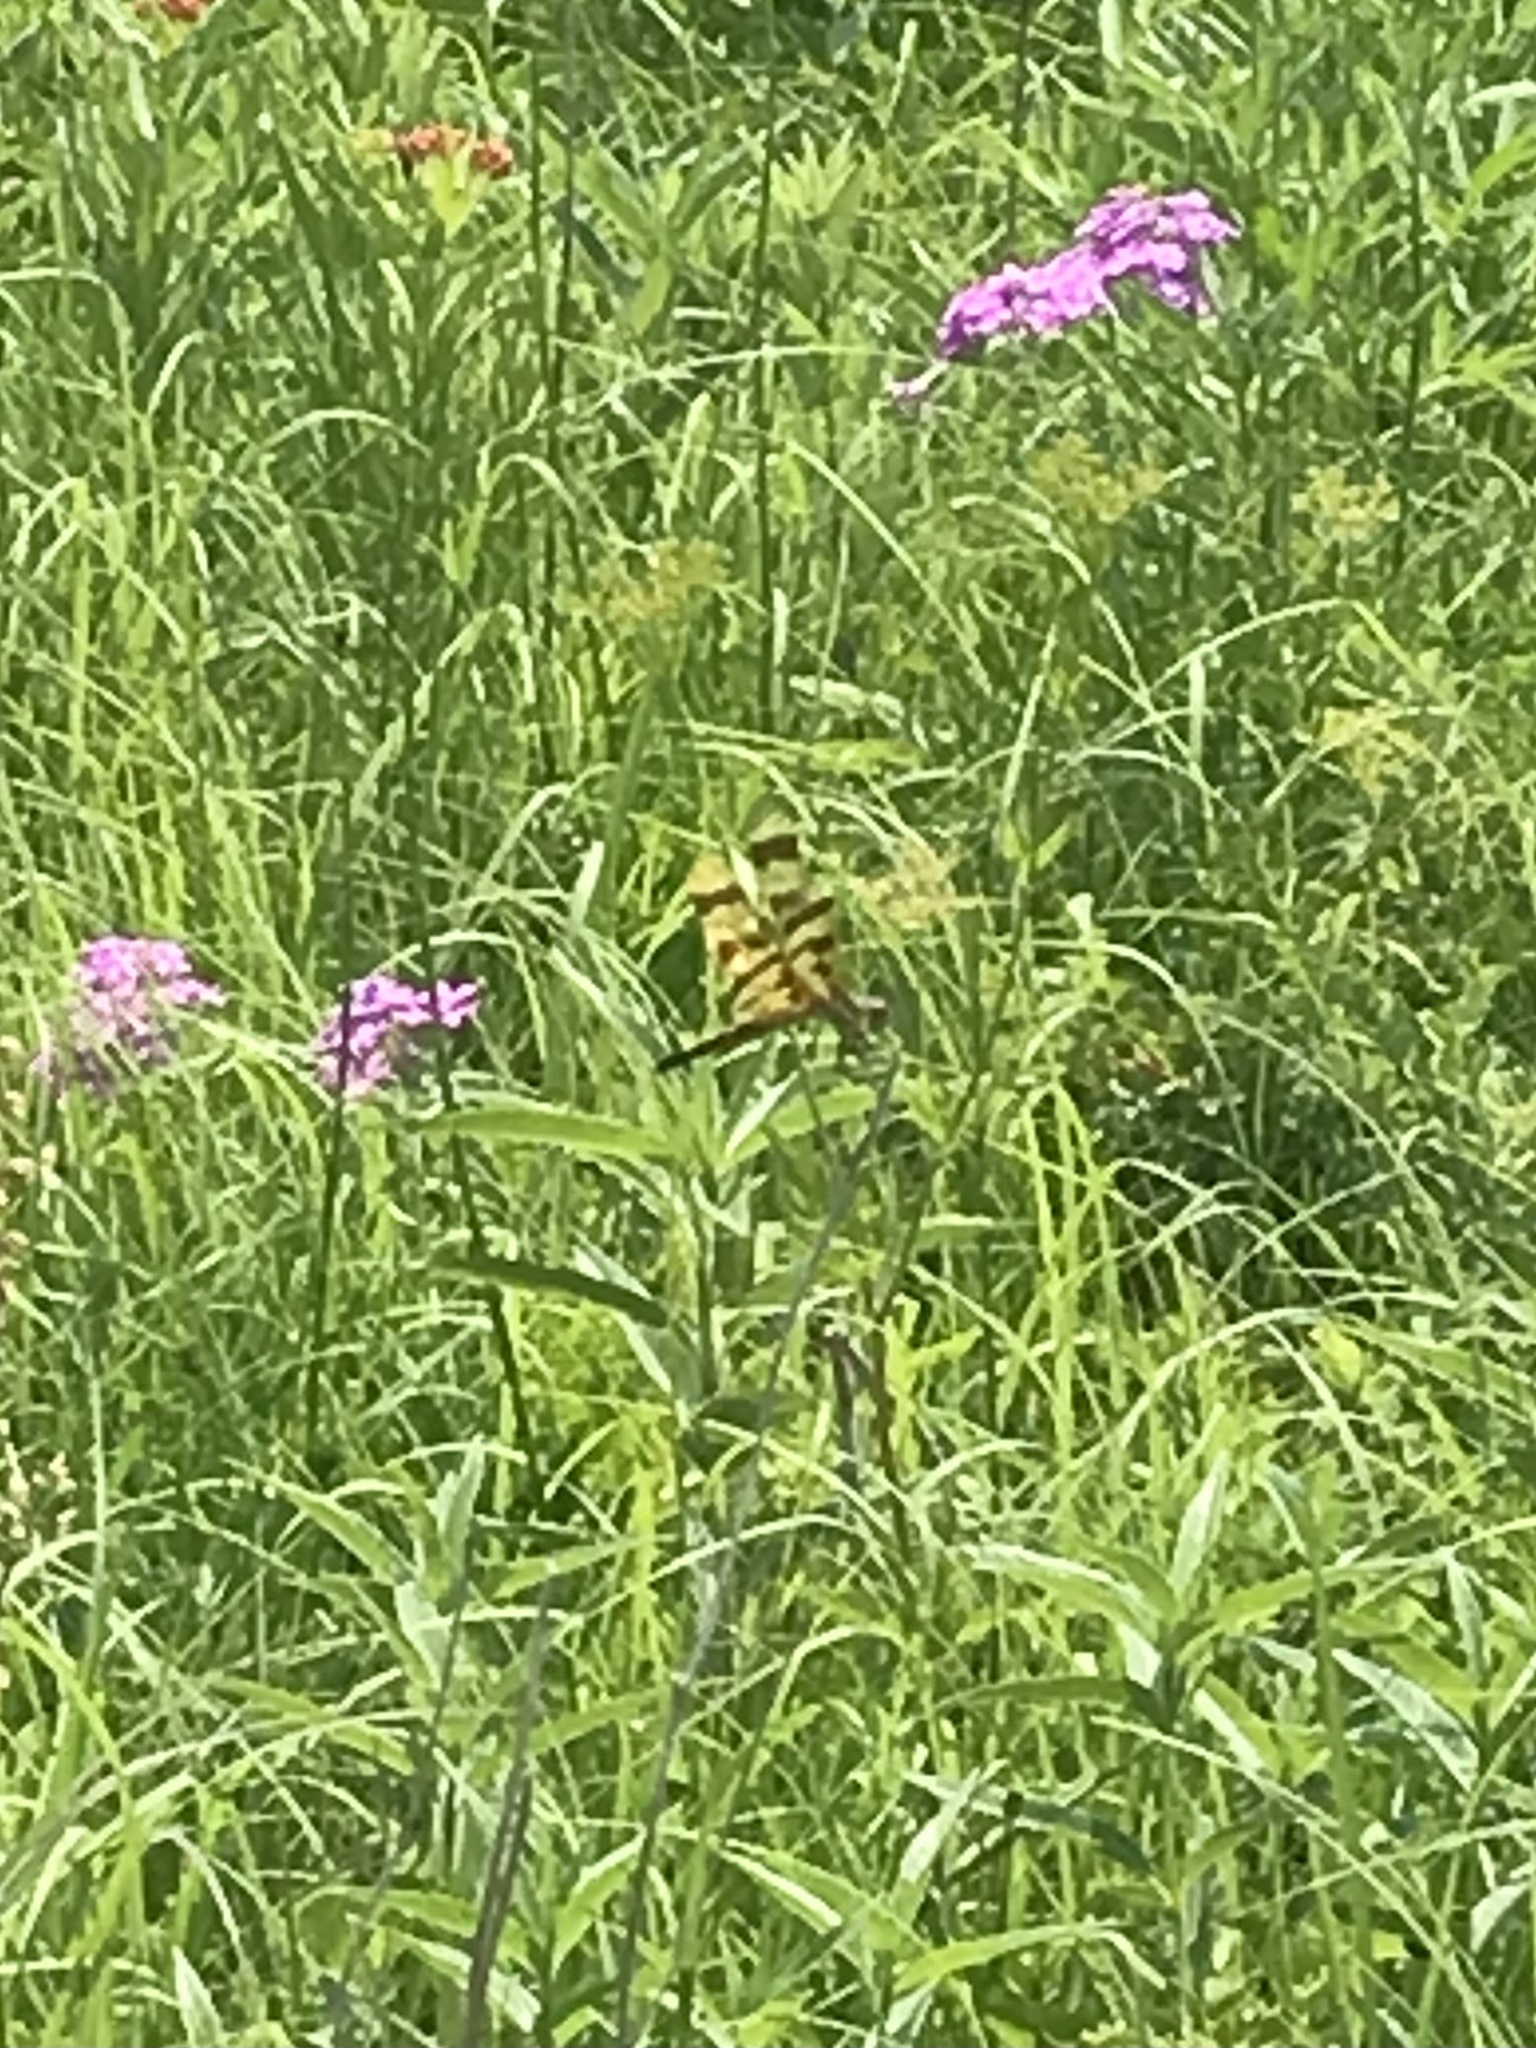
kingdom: Animalia
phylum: Arthropoda
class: Insecta
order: Odonata
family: Libellulidae
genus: Celithemis
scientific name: Celithemis eponina
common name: Halloween pennant
